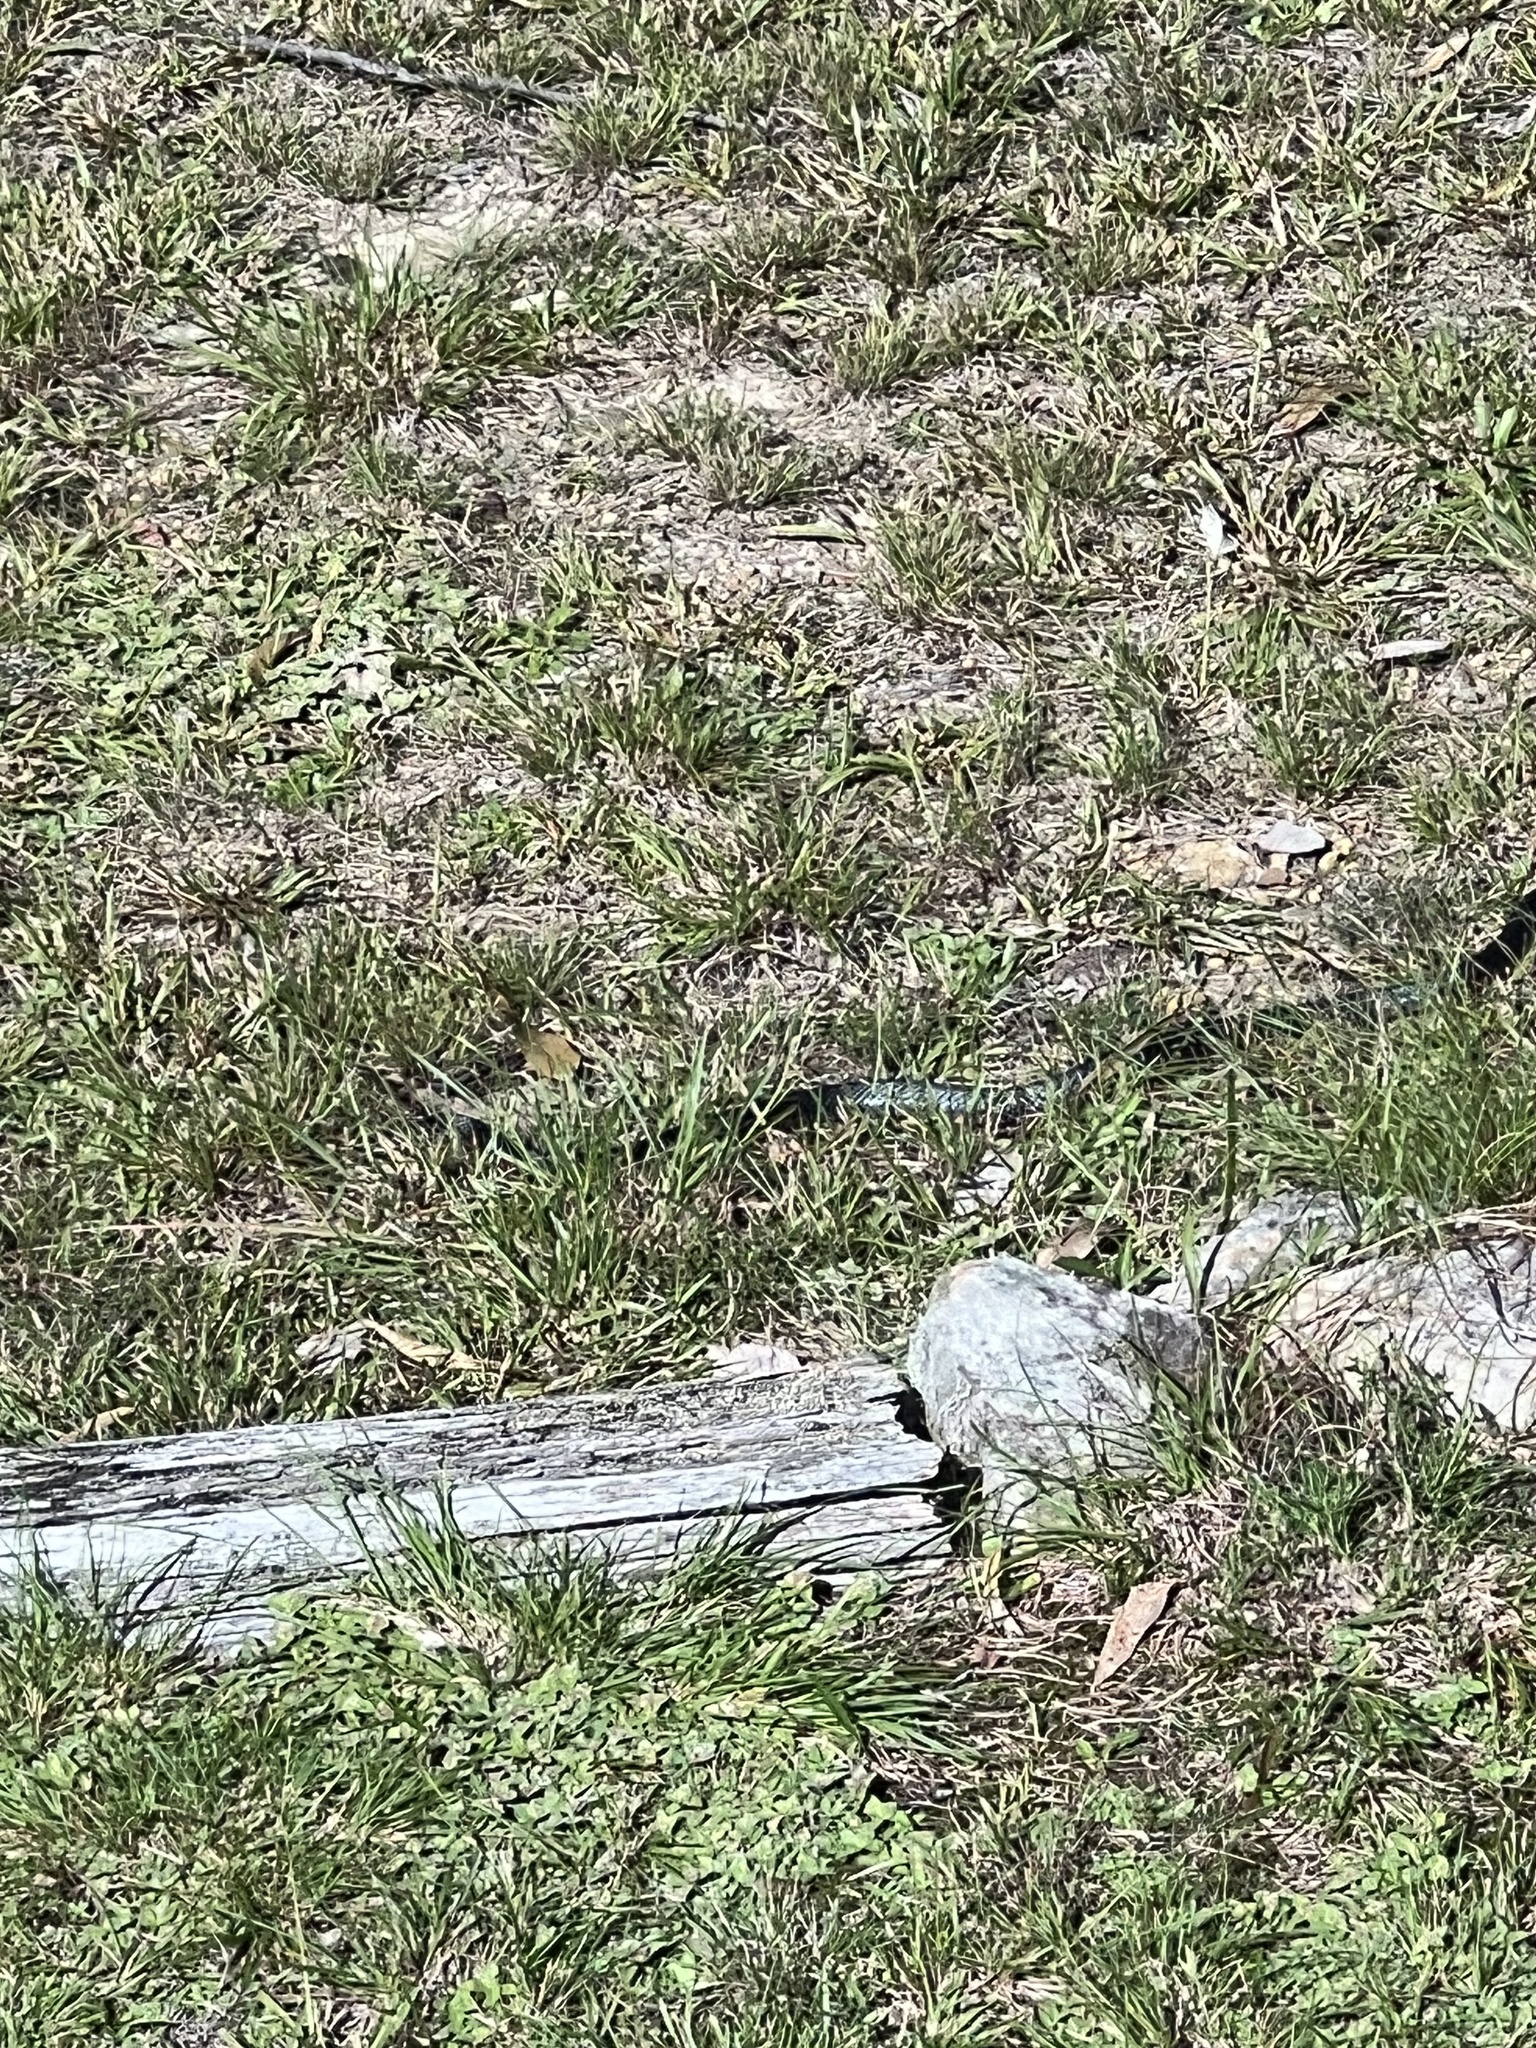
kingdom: Animalia
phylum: Chordata
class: Squamata
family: Elapidae
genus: Pseudechis
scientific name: Pseudechis porphyriacus
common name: Australian black snake
